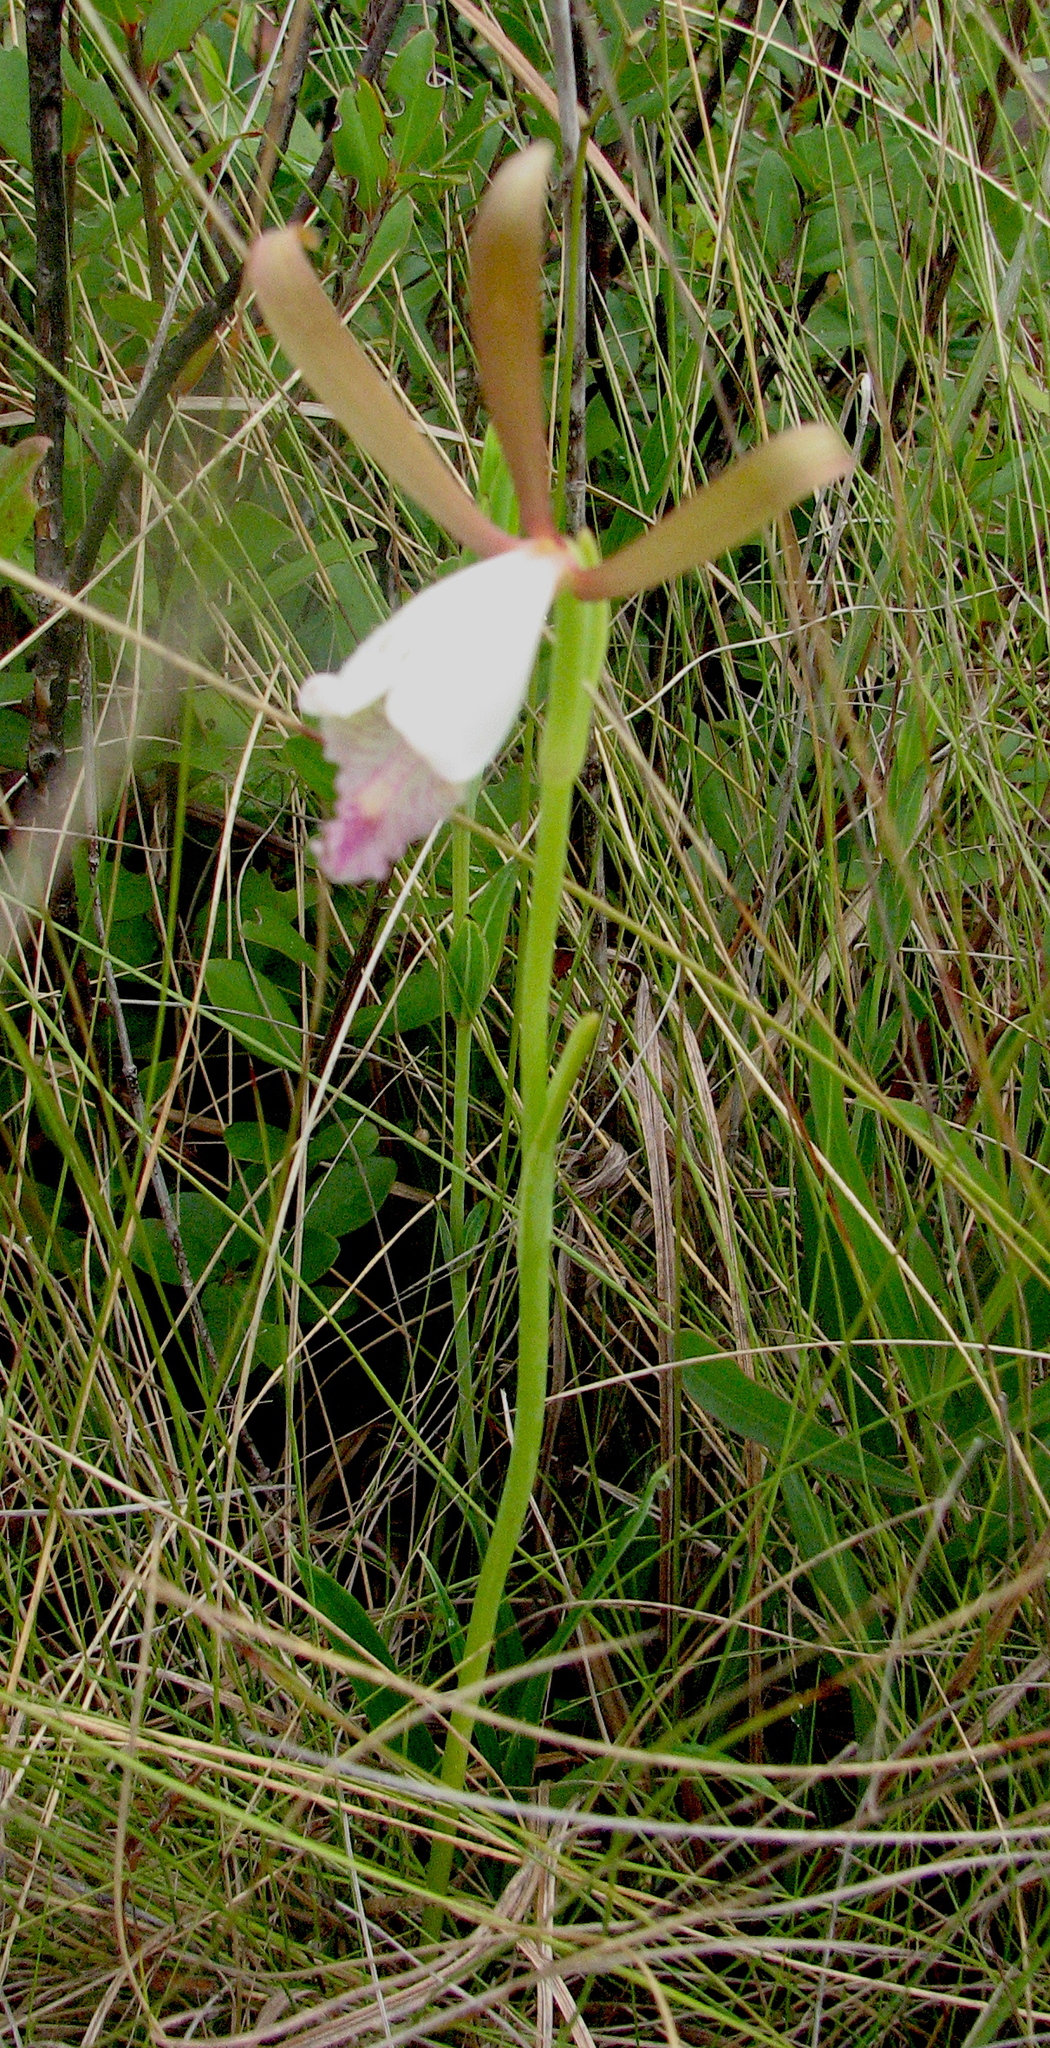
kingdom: Plantae
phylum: Tracheophyta
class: Liliopsida
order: Asparagales
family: Orchidaceae
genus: Cleistesiopsis
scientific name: Cleistesiopsis oricamporum
